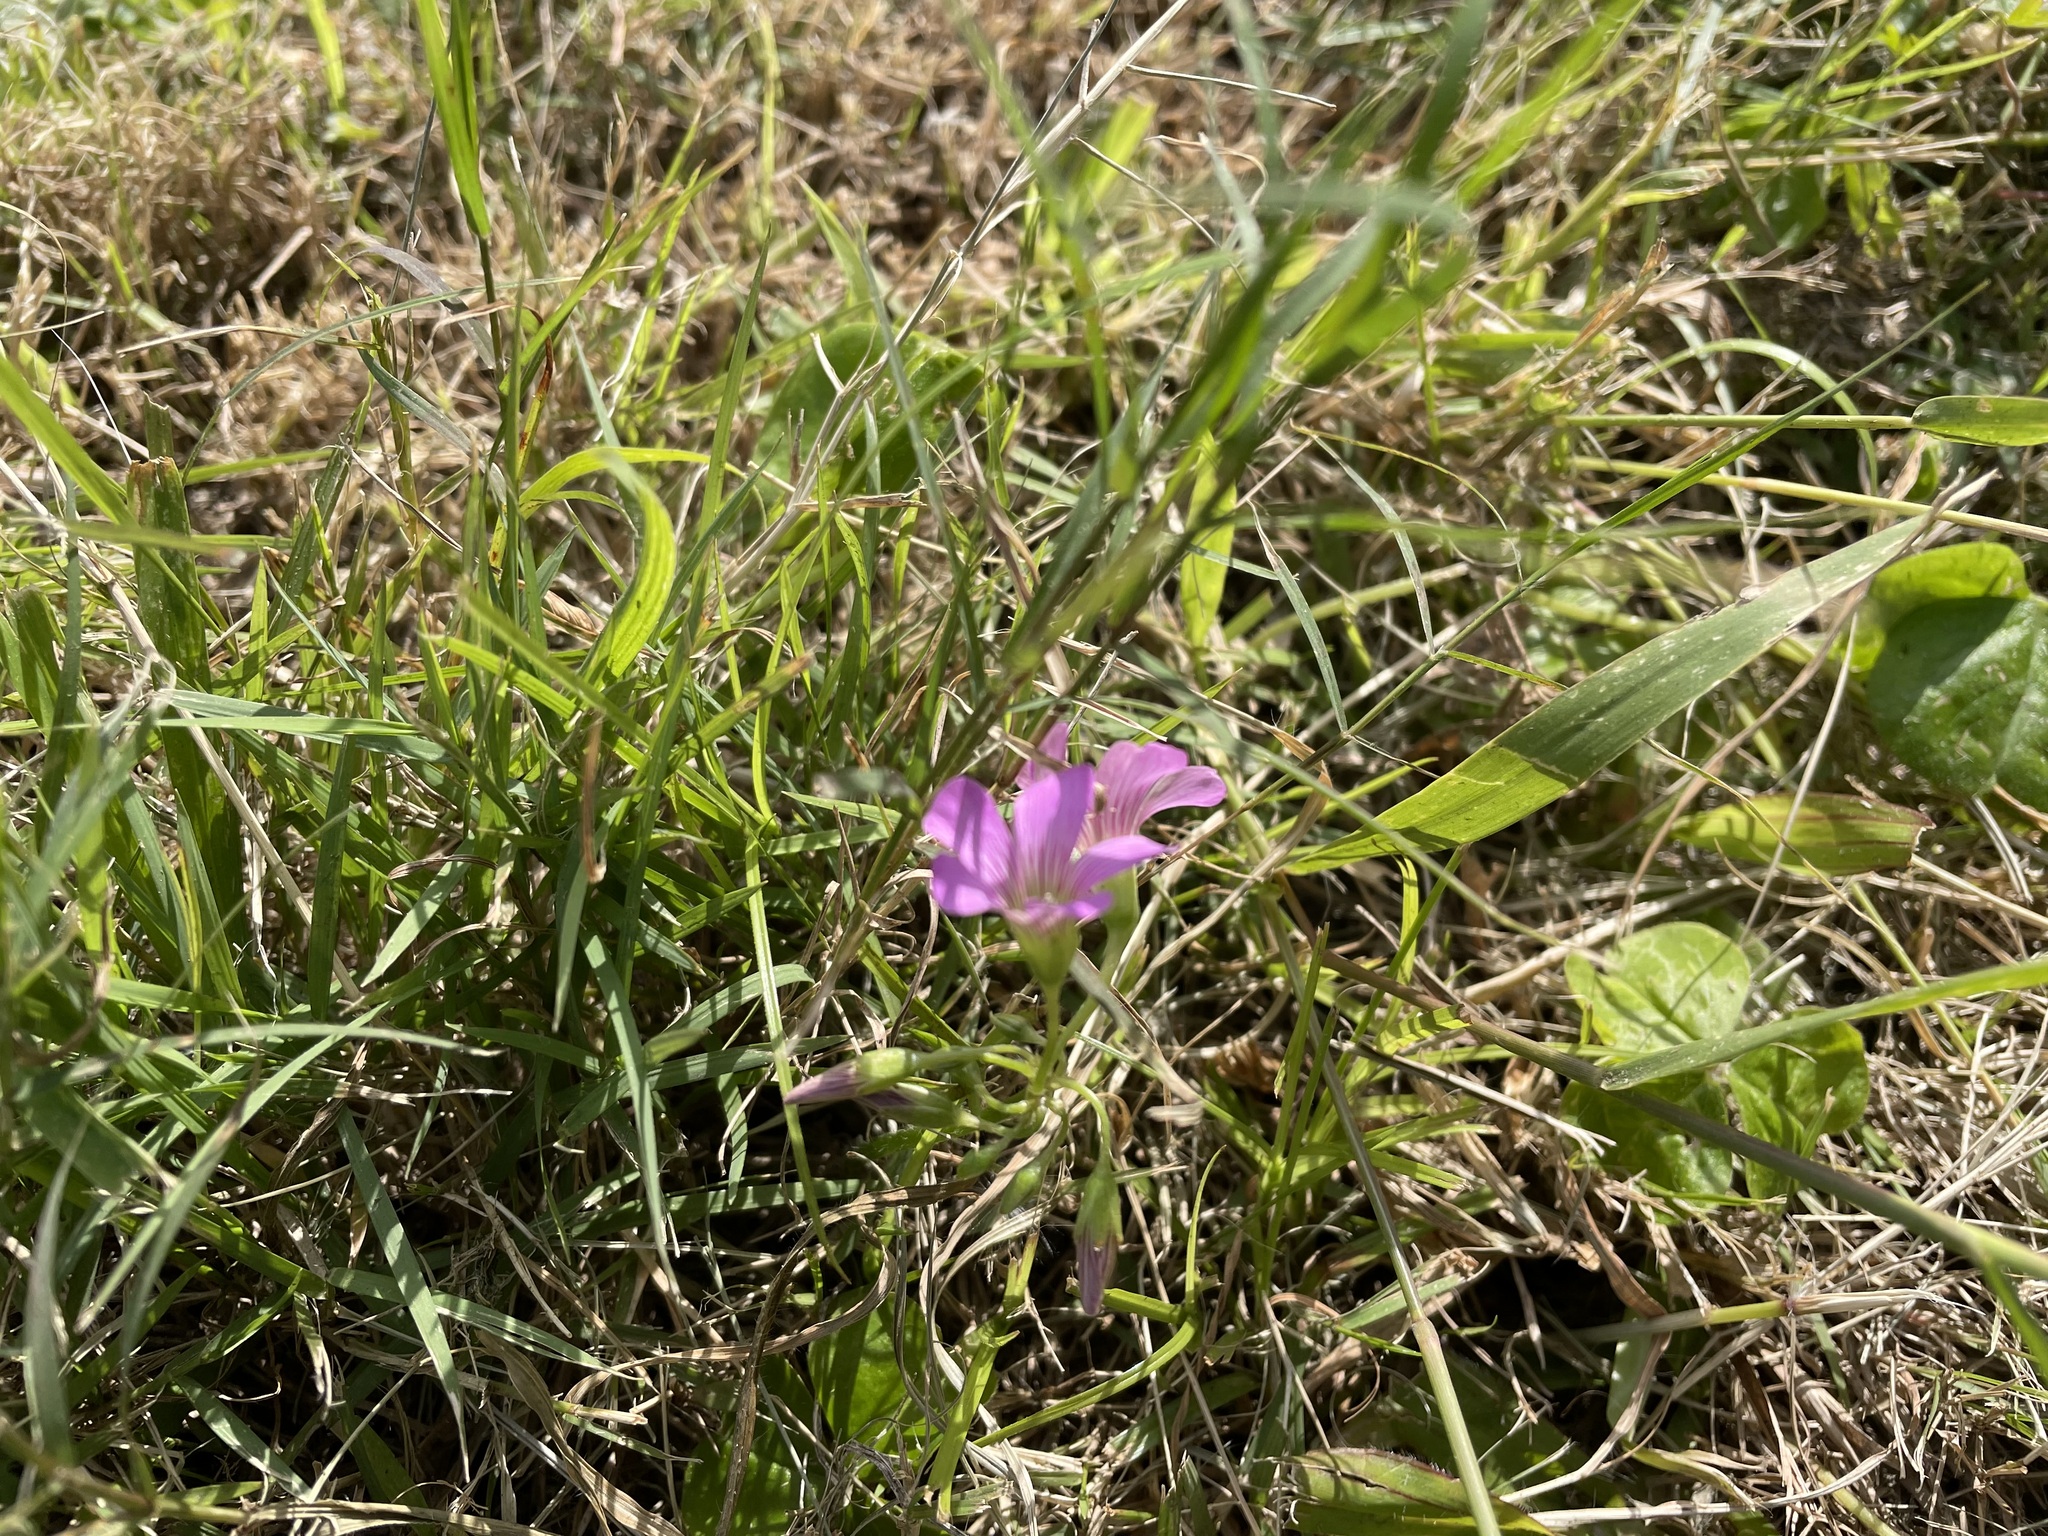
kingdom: Plantae
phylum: Tracheophyta
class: Magnoliopsida
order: Oxalidales
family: Oxalidaceae
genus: Oxalis
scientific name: Oxalis debilis
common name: Large-flowered pink-sorrel
